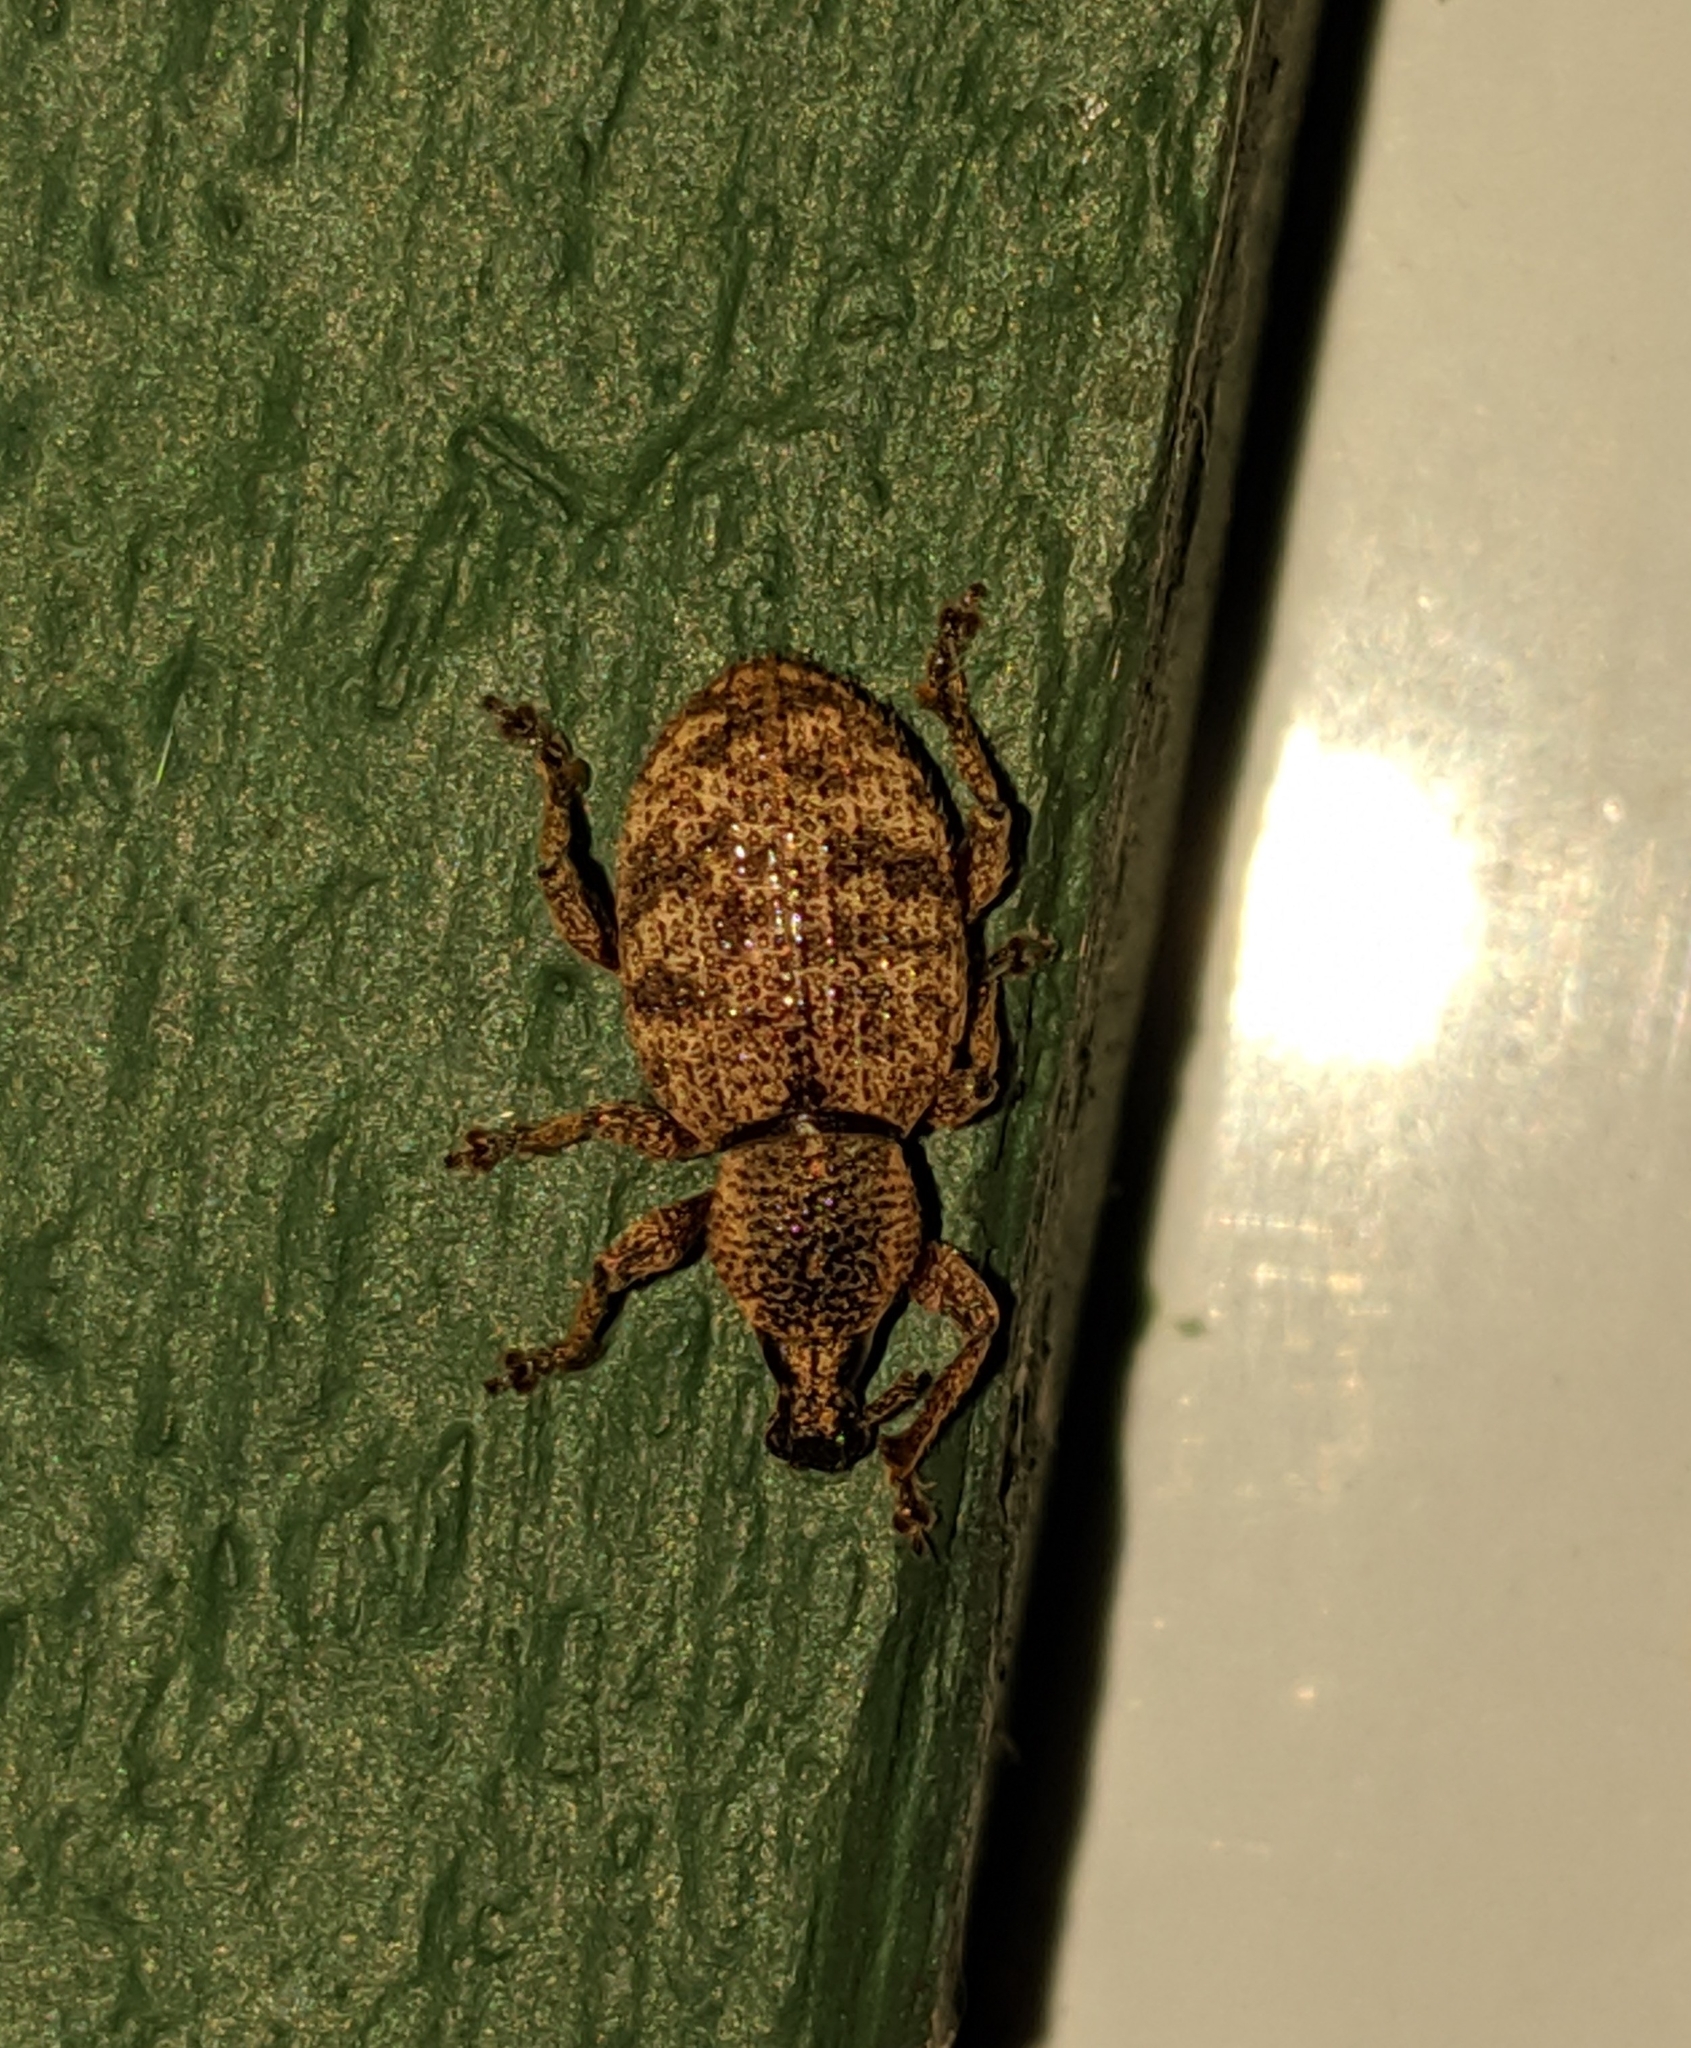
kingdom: Animalia
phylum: Arthropoda
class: Insecta
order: Coleoptera
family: Curculionidae
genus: Otiorhynchus
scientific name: Otiorhynchus singularis
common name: Clay-coloured weevil
